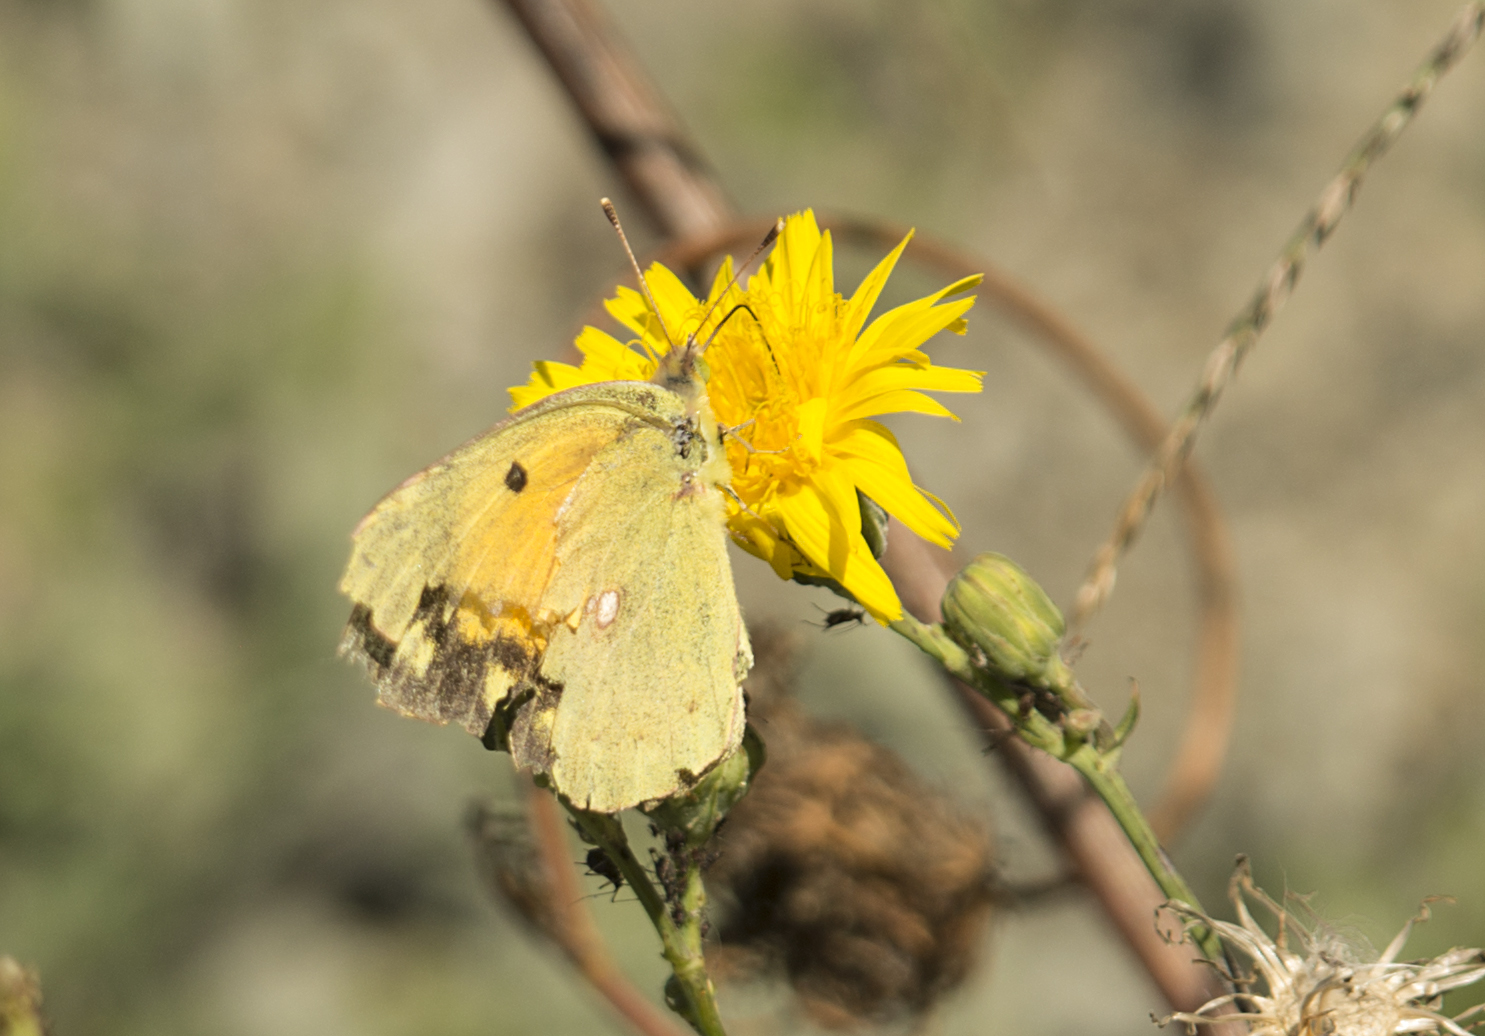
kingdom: Animalia
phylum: Arthropoda
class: Insecta
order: Lepidoptera
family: Pieridae
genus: Colias
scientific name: Colias croceus
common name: Clouded yellow
